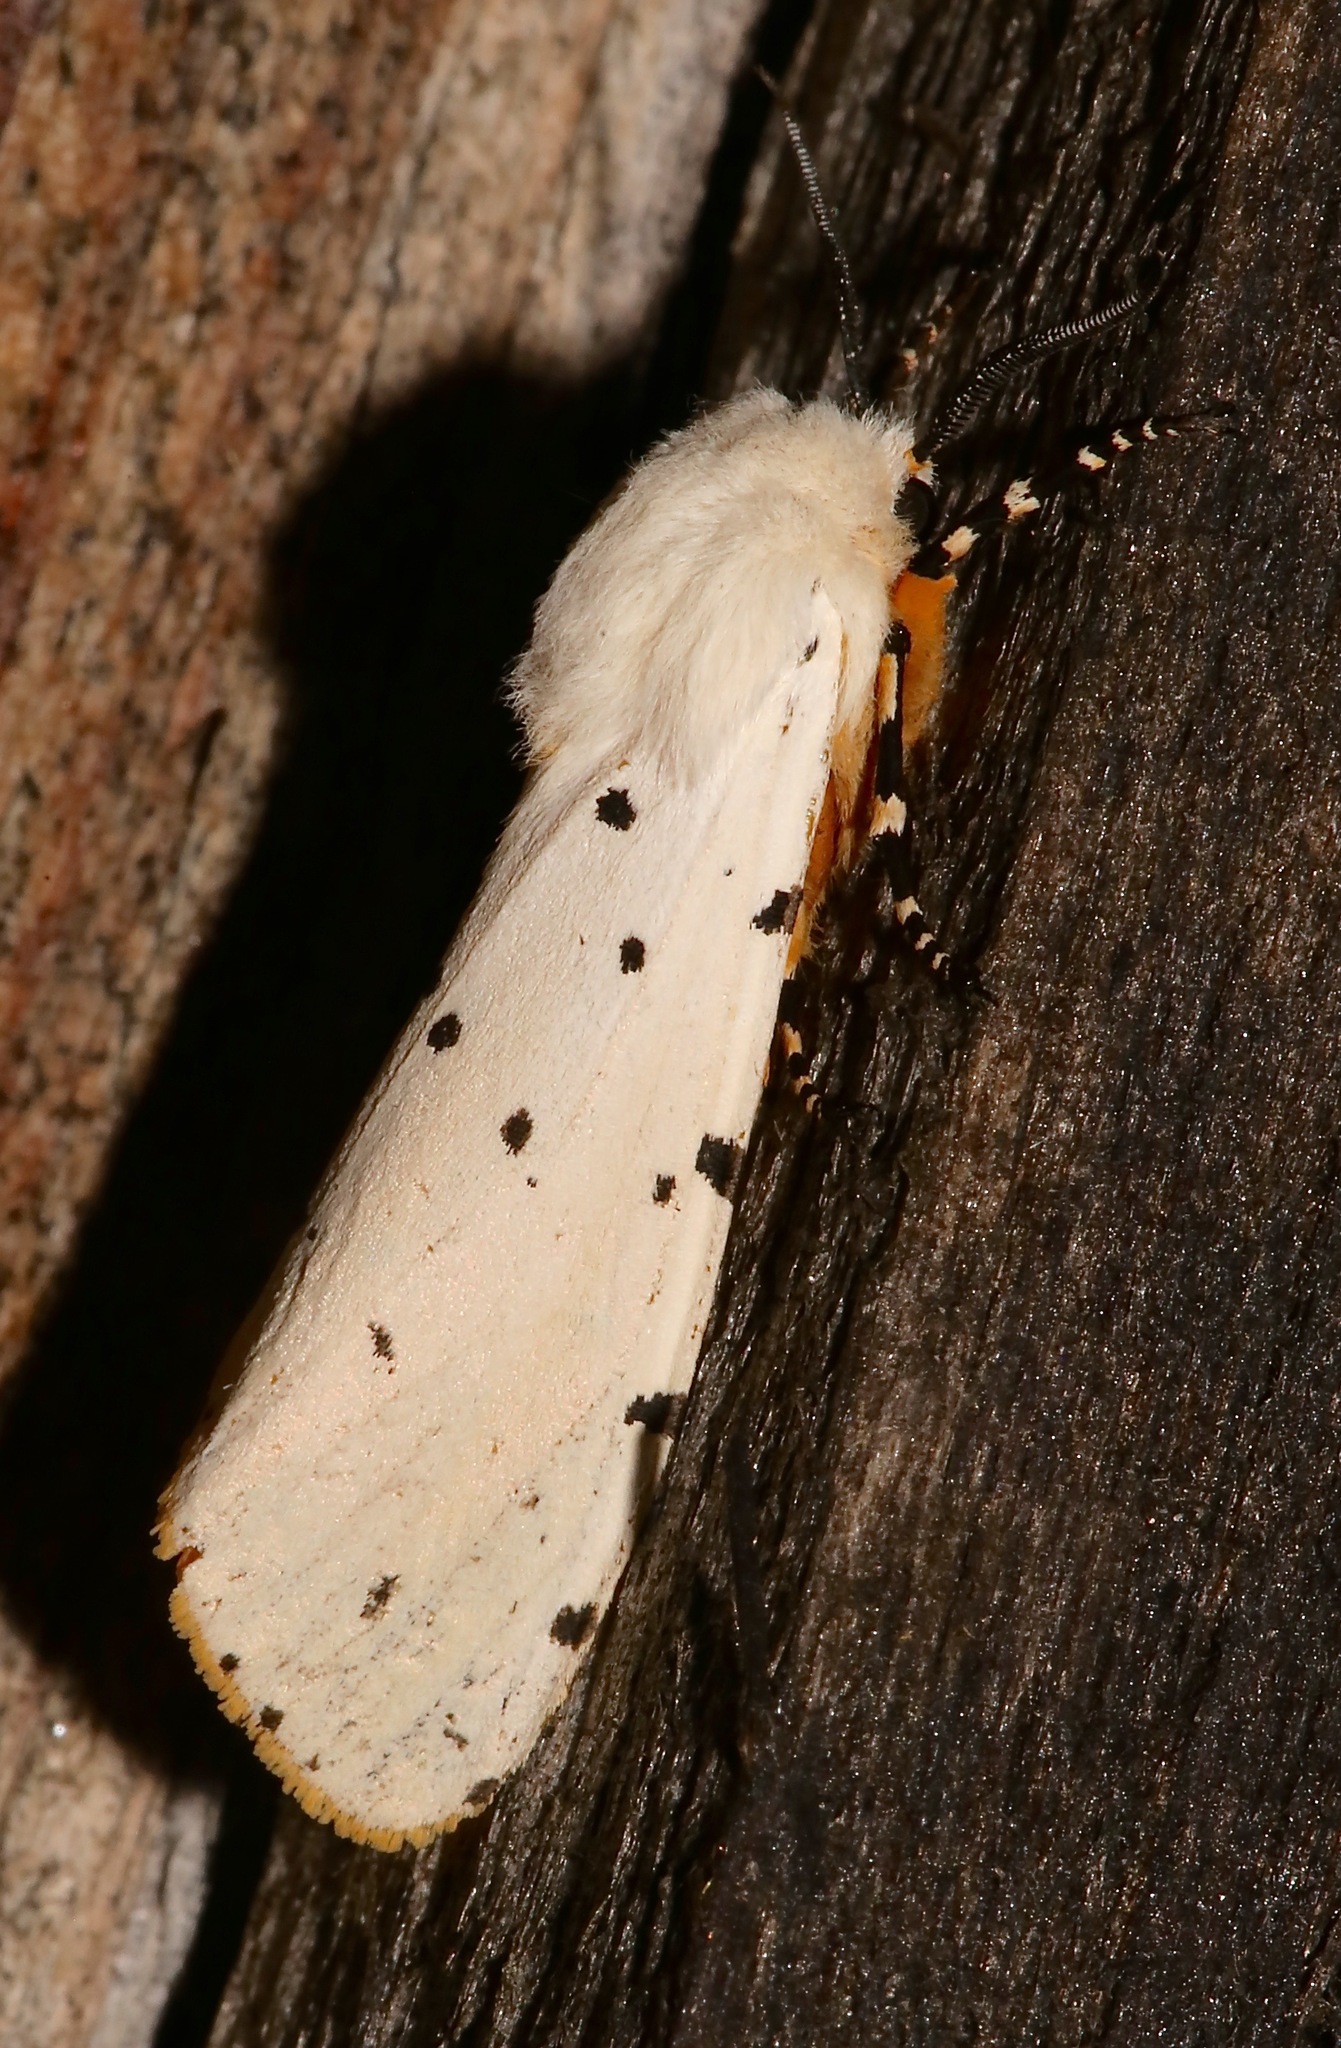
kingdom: Animalia
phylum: Arthropoda
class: Insecta
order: Lepidoptera
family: Erebidae
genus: Estigmene
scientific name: Estigmene acrea
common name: Salt marsh moth
